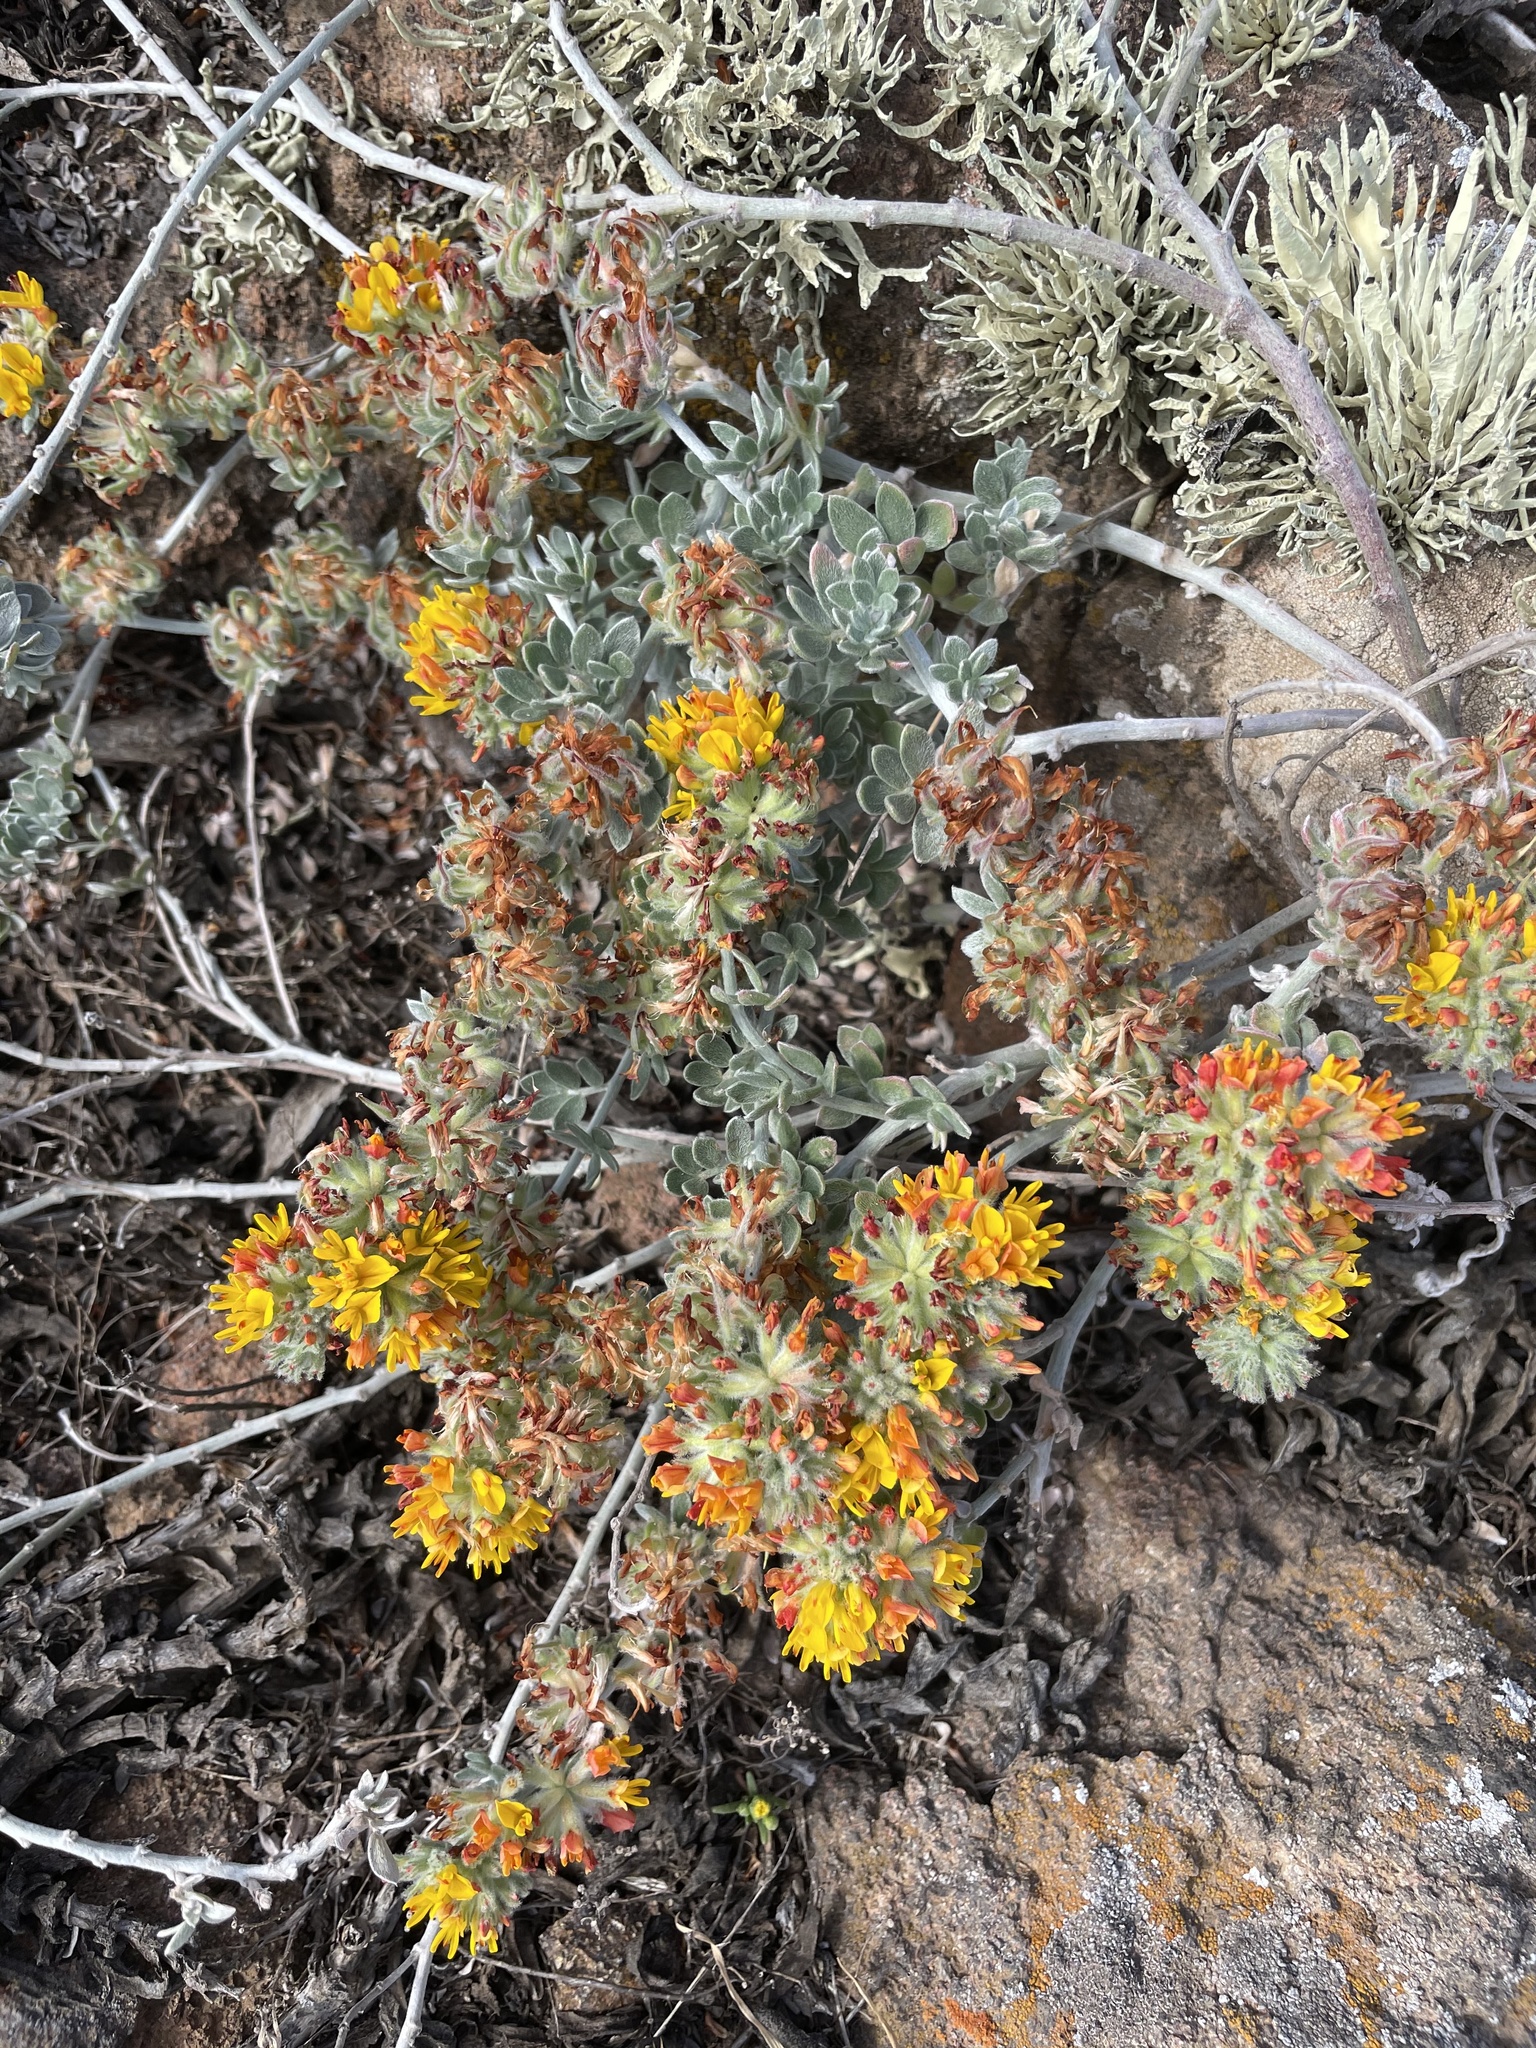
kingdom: Plantae
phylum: Tracheophyta
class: Magnoliopsida
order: Fabales
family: Fabaceae
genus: Acmispon
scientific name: Acmispon argophyllus
